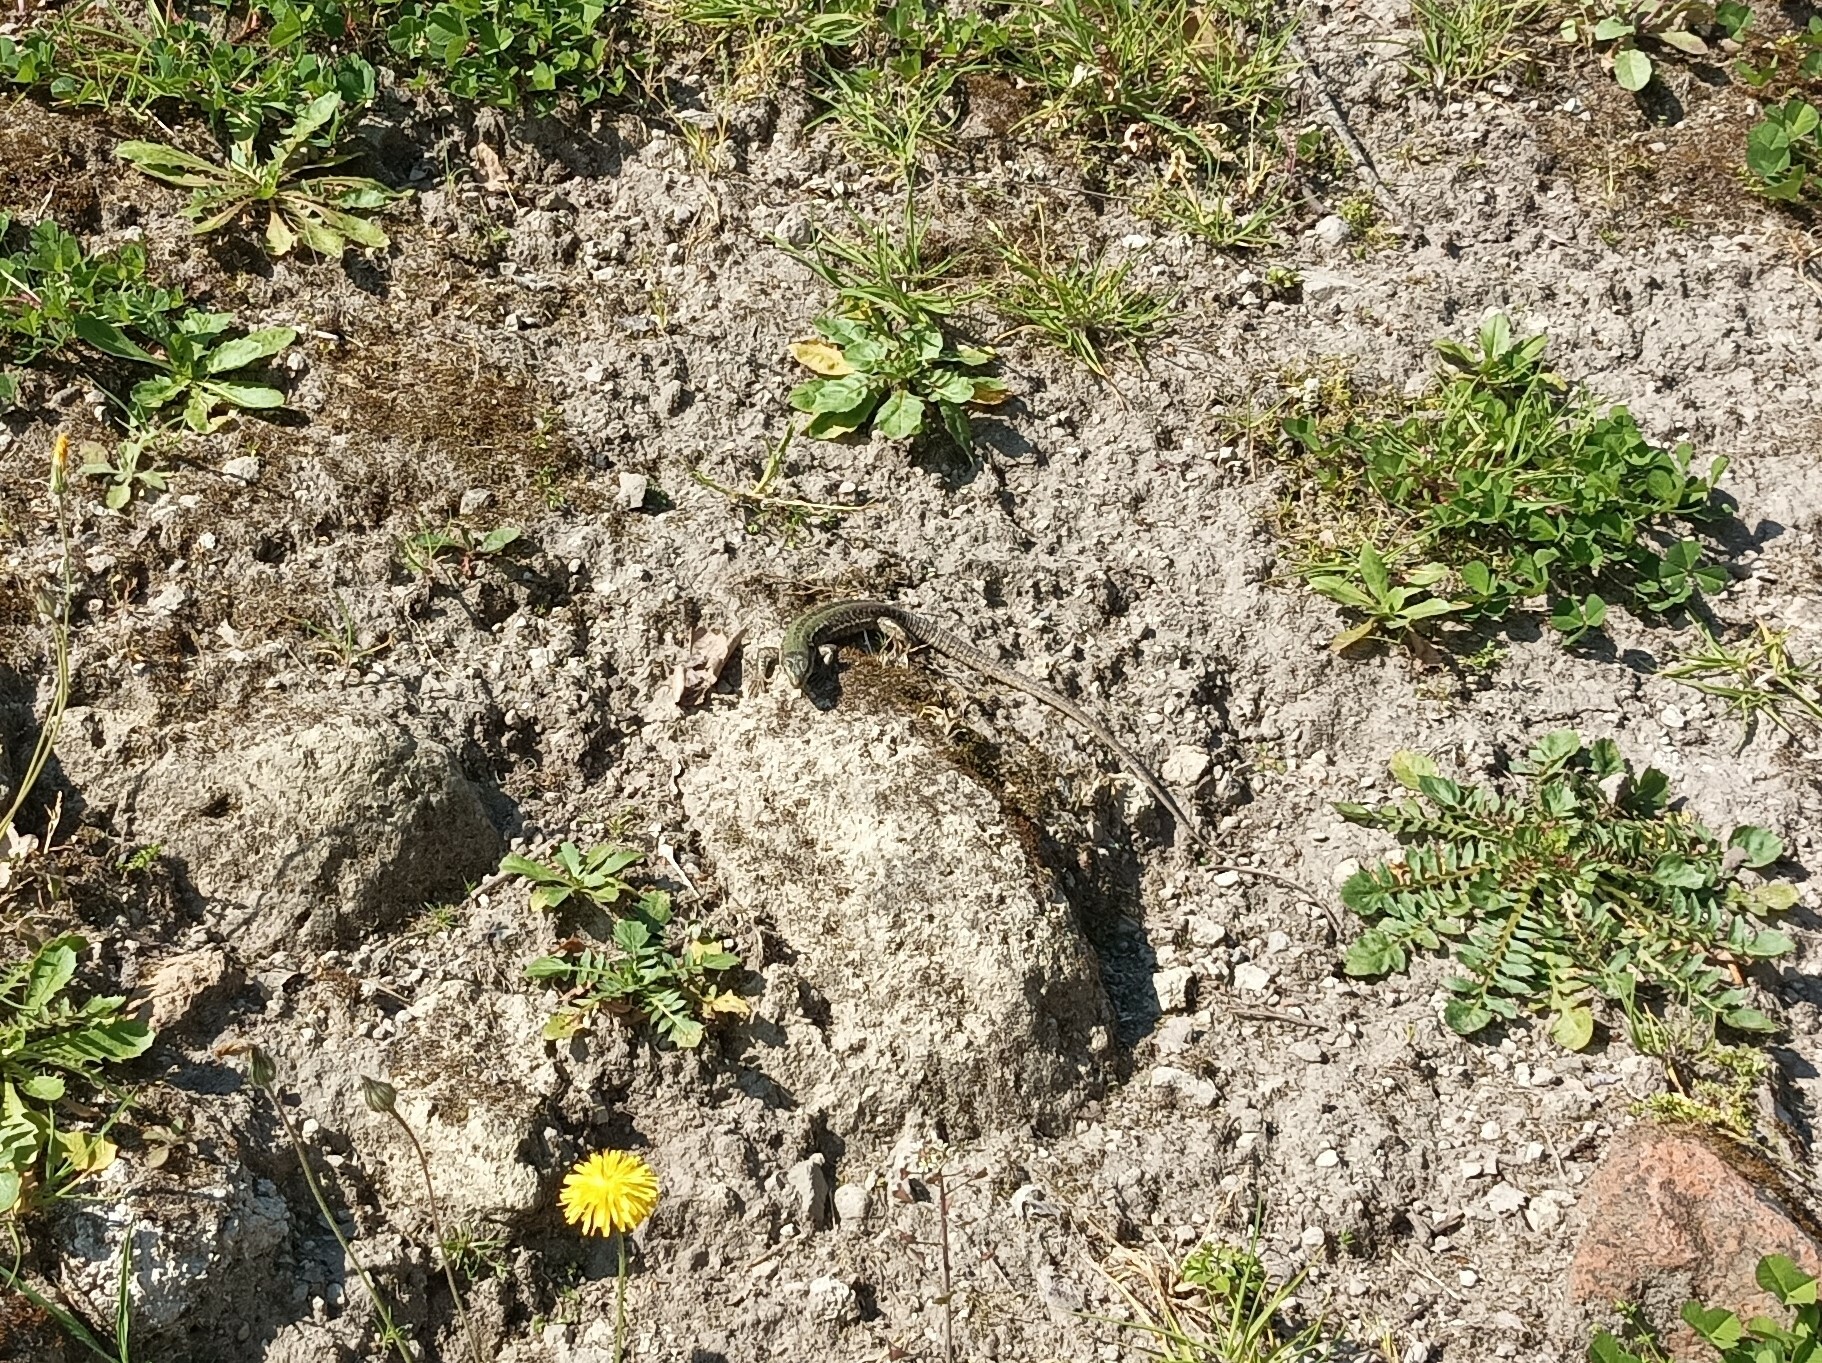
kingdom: Animalia
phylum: Chordata
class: Squamata
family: Lacertidae
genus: Podarcis
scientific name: Podarcis siculus
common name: Italian wall lizard
